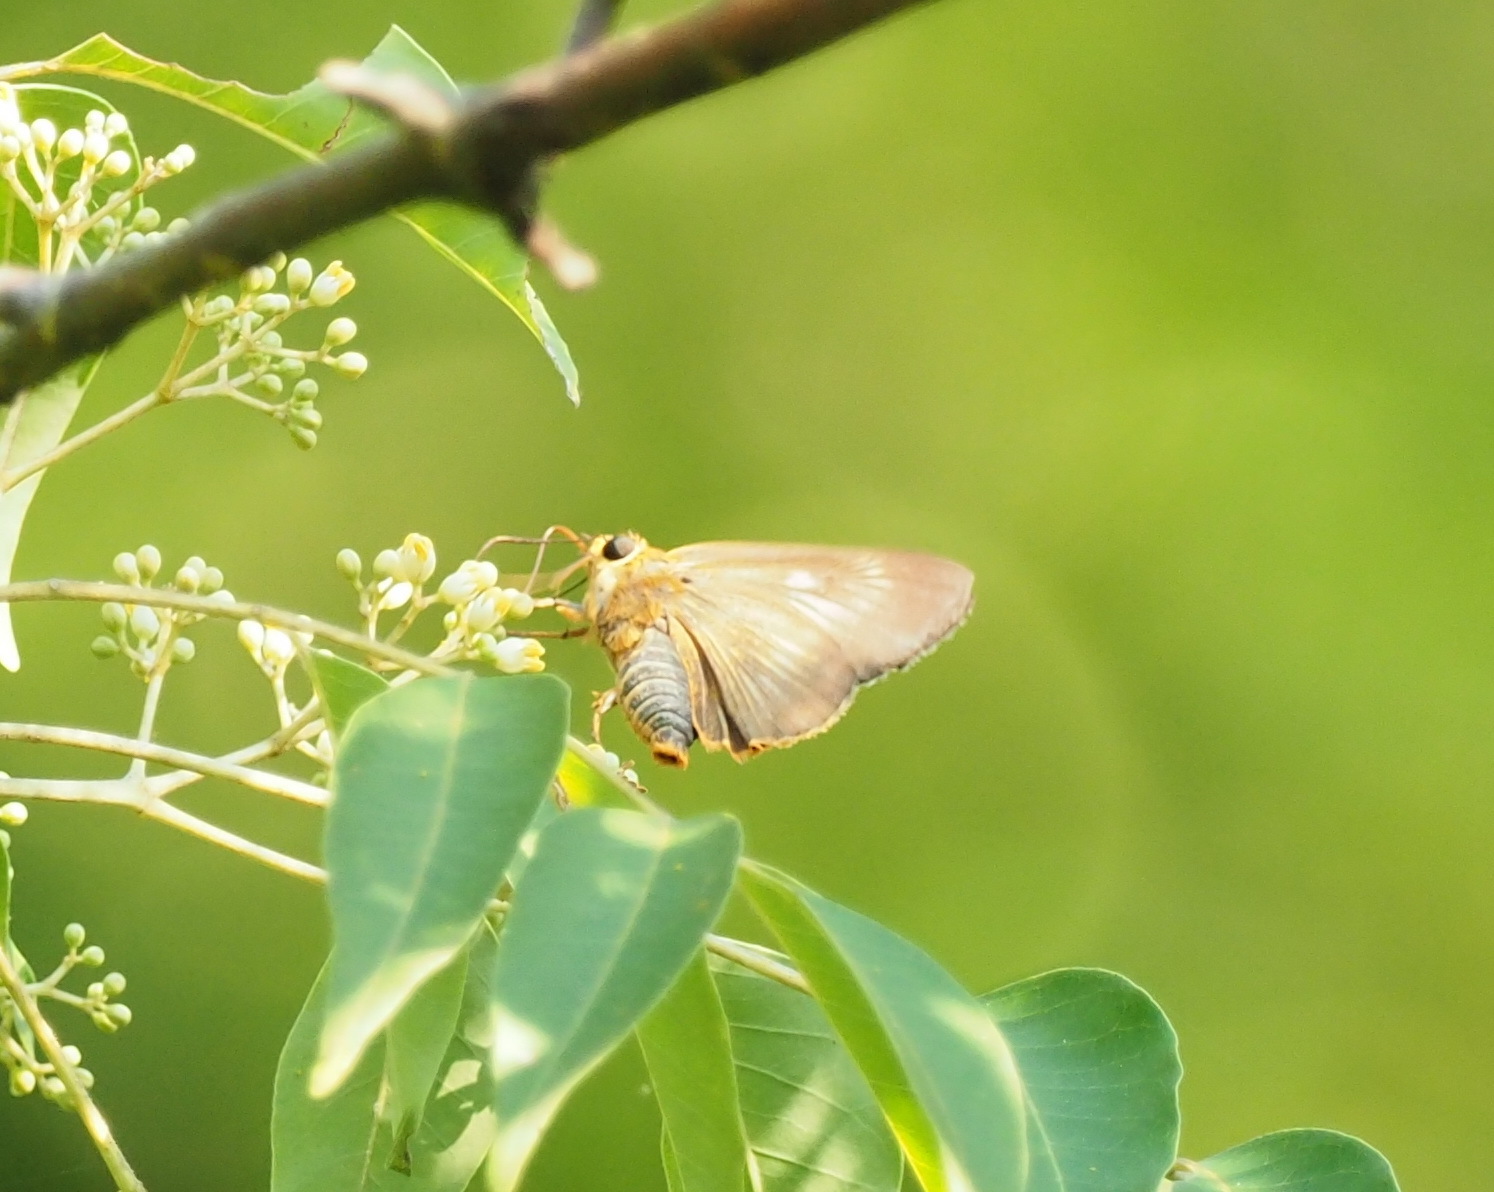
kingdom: Animalia
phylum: Arthropoda
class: Insecta
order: Lepidoptera
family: Hesperiidae
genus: Bibasis
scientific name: Bibasis jaina
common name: Common orange awlet
